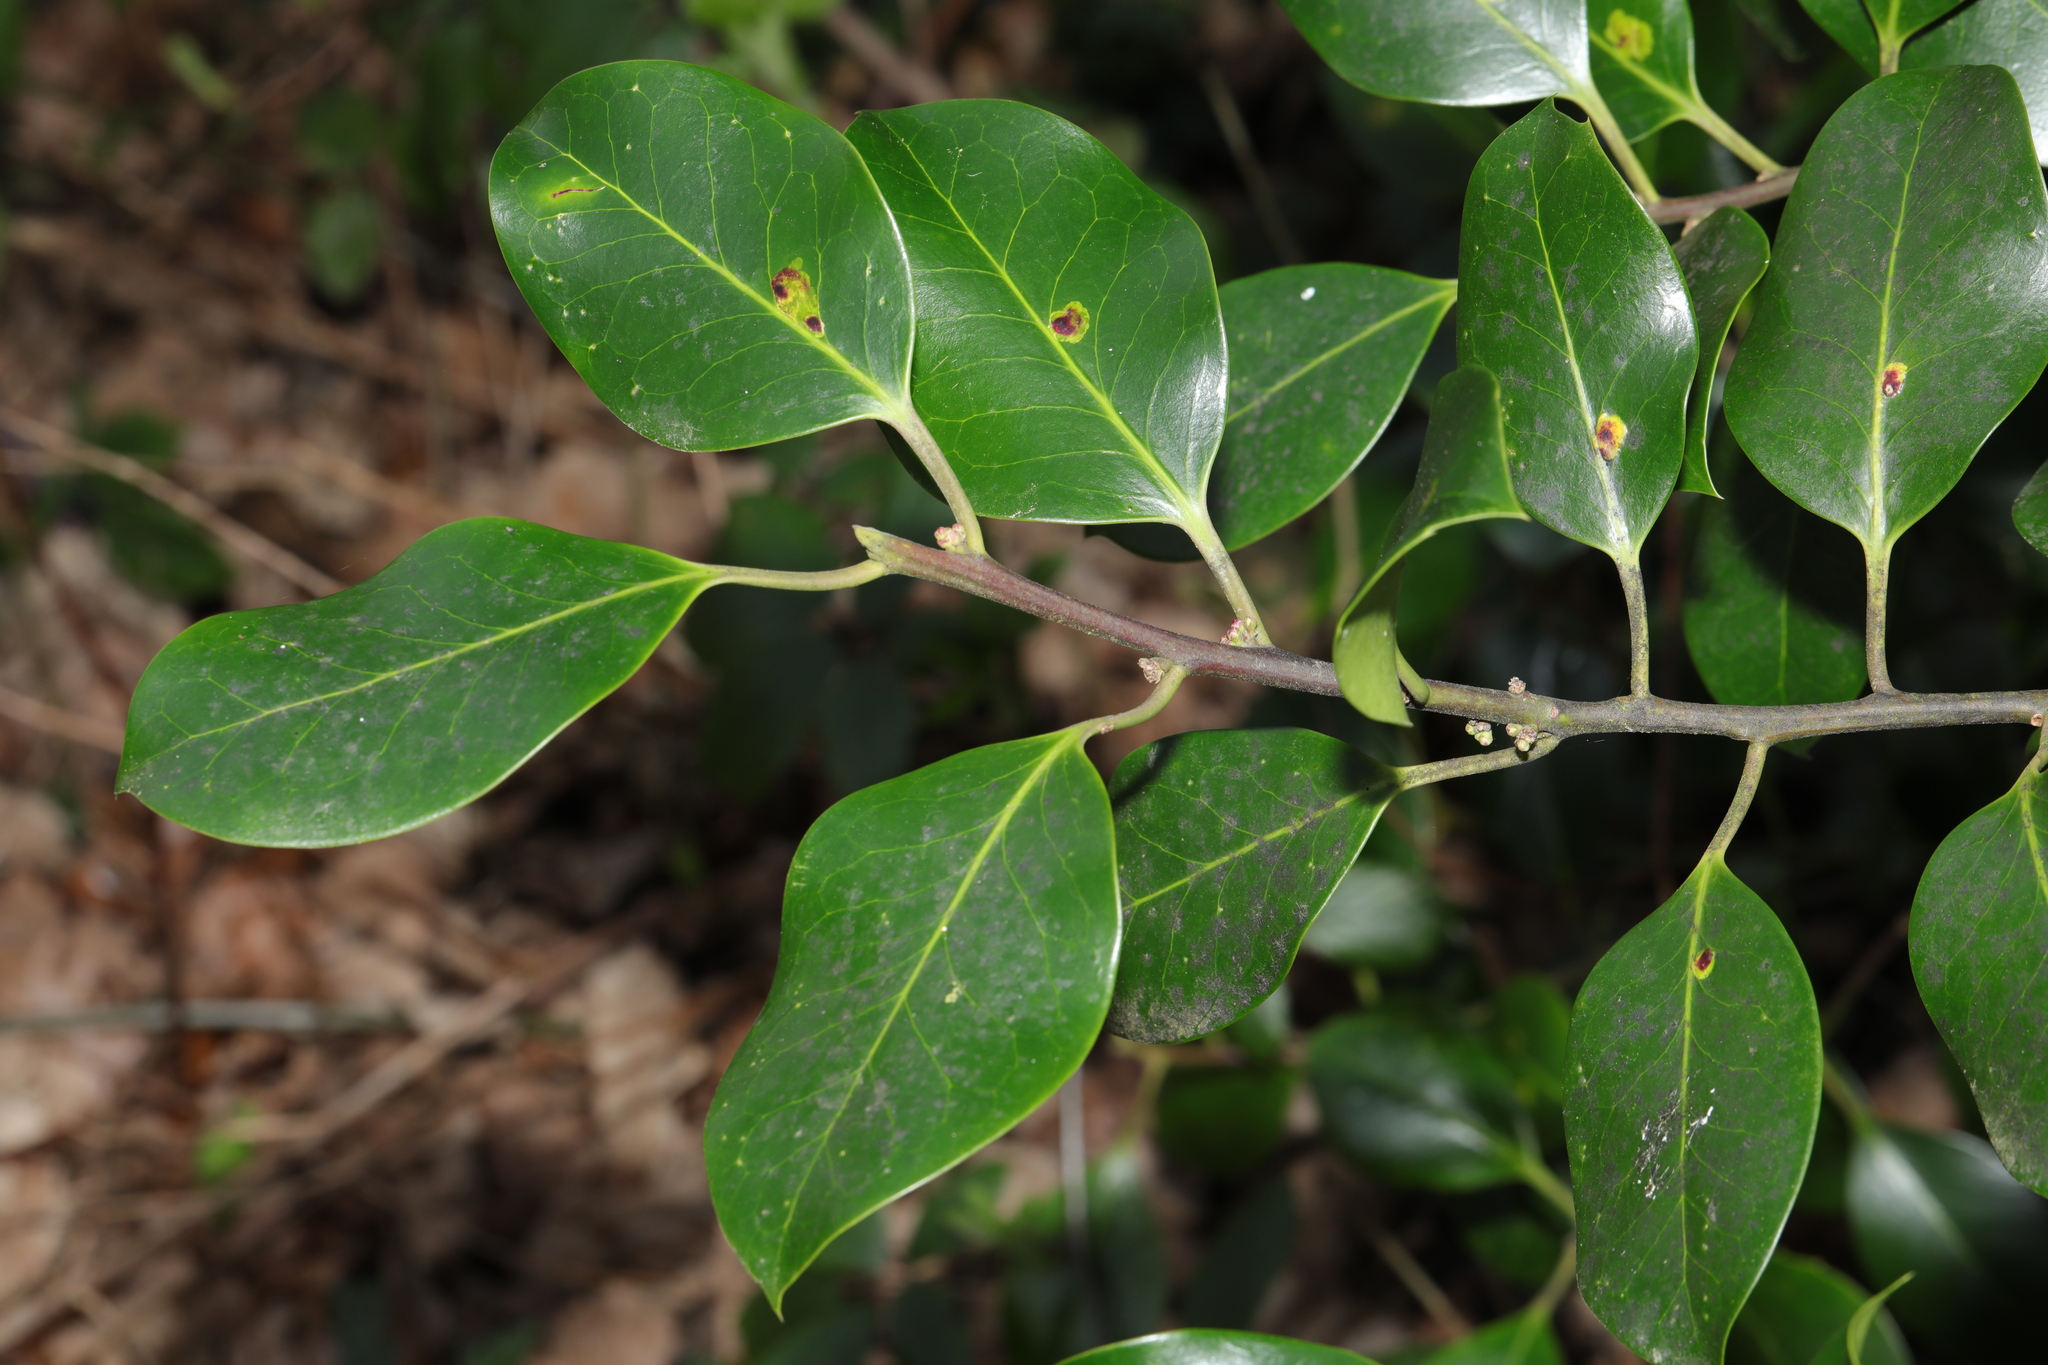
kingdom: Plantae
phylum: Tracheophyta
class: Magnoliopsida
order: Aquifoliales
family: Aquifoliaceae
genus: Ilex
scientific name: Ilex aquifolium
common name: English holly
